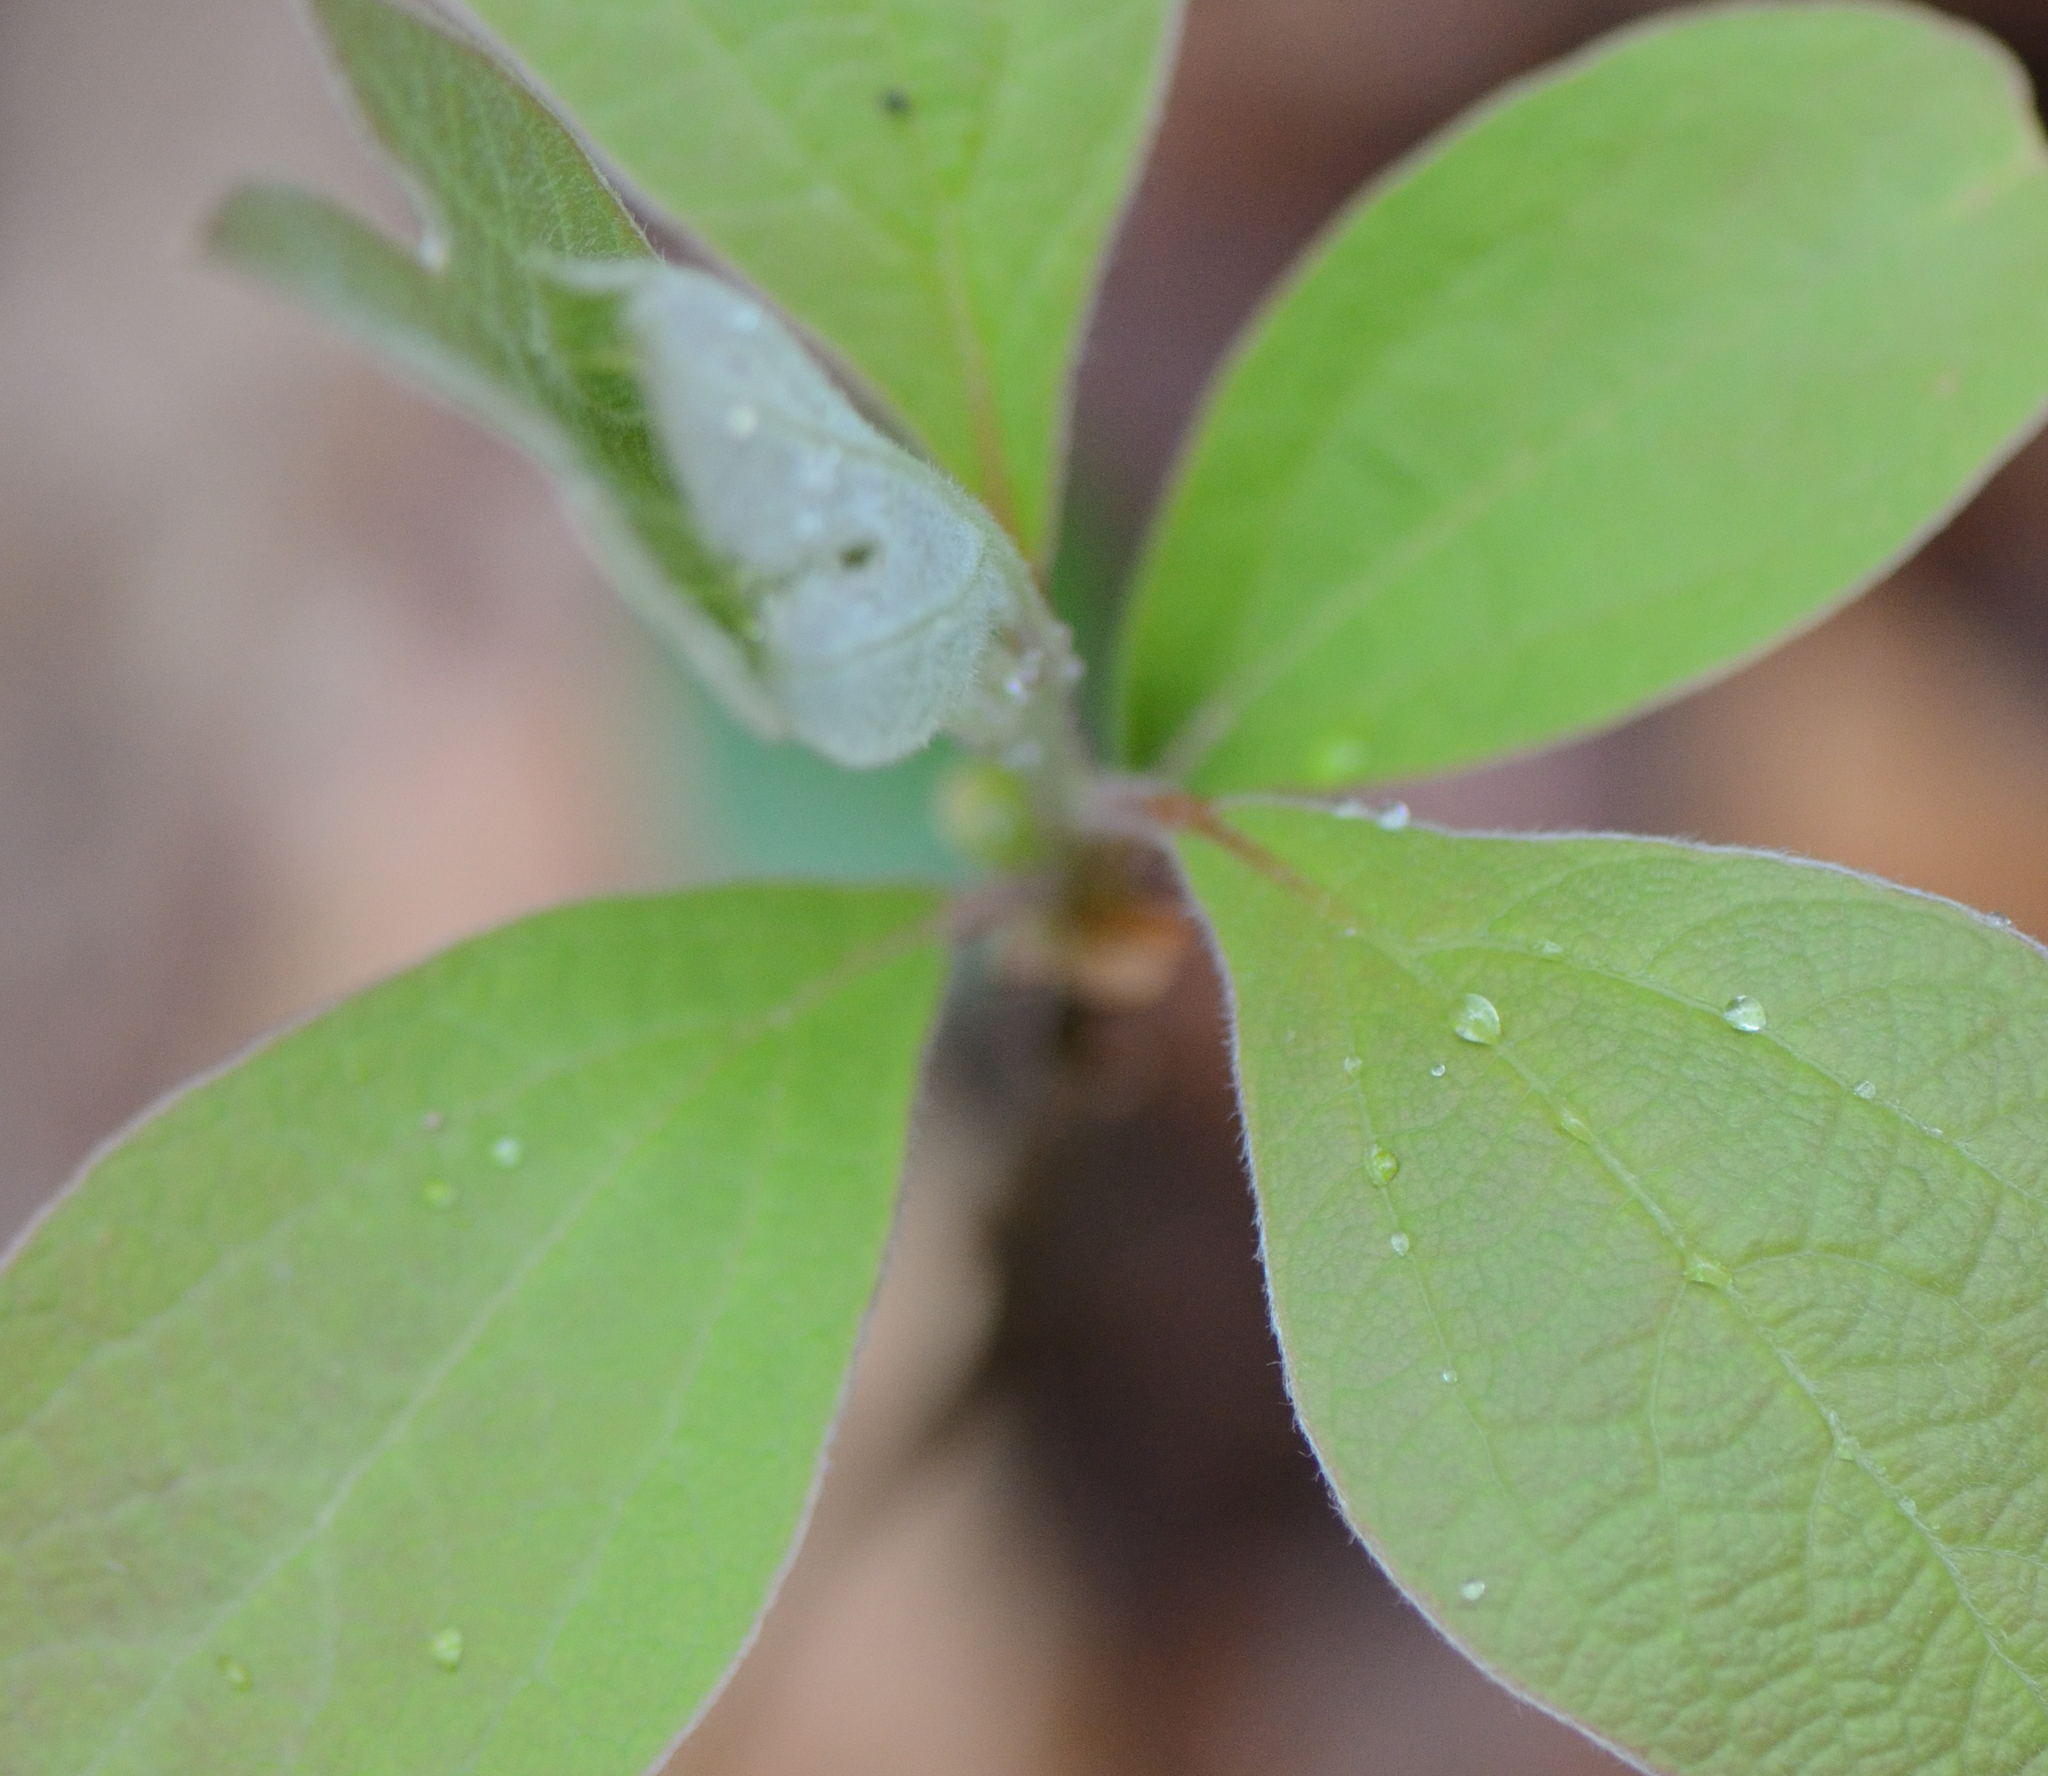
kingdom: Plantae
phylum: Tracheophyta
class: Magnoliopsida
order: Laurales
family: Lauraceae
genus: Sassafras
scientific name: Sassafras albidum
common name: Sassafras
